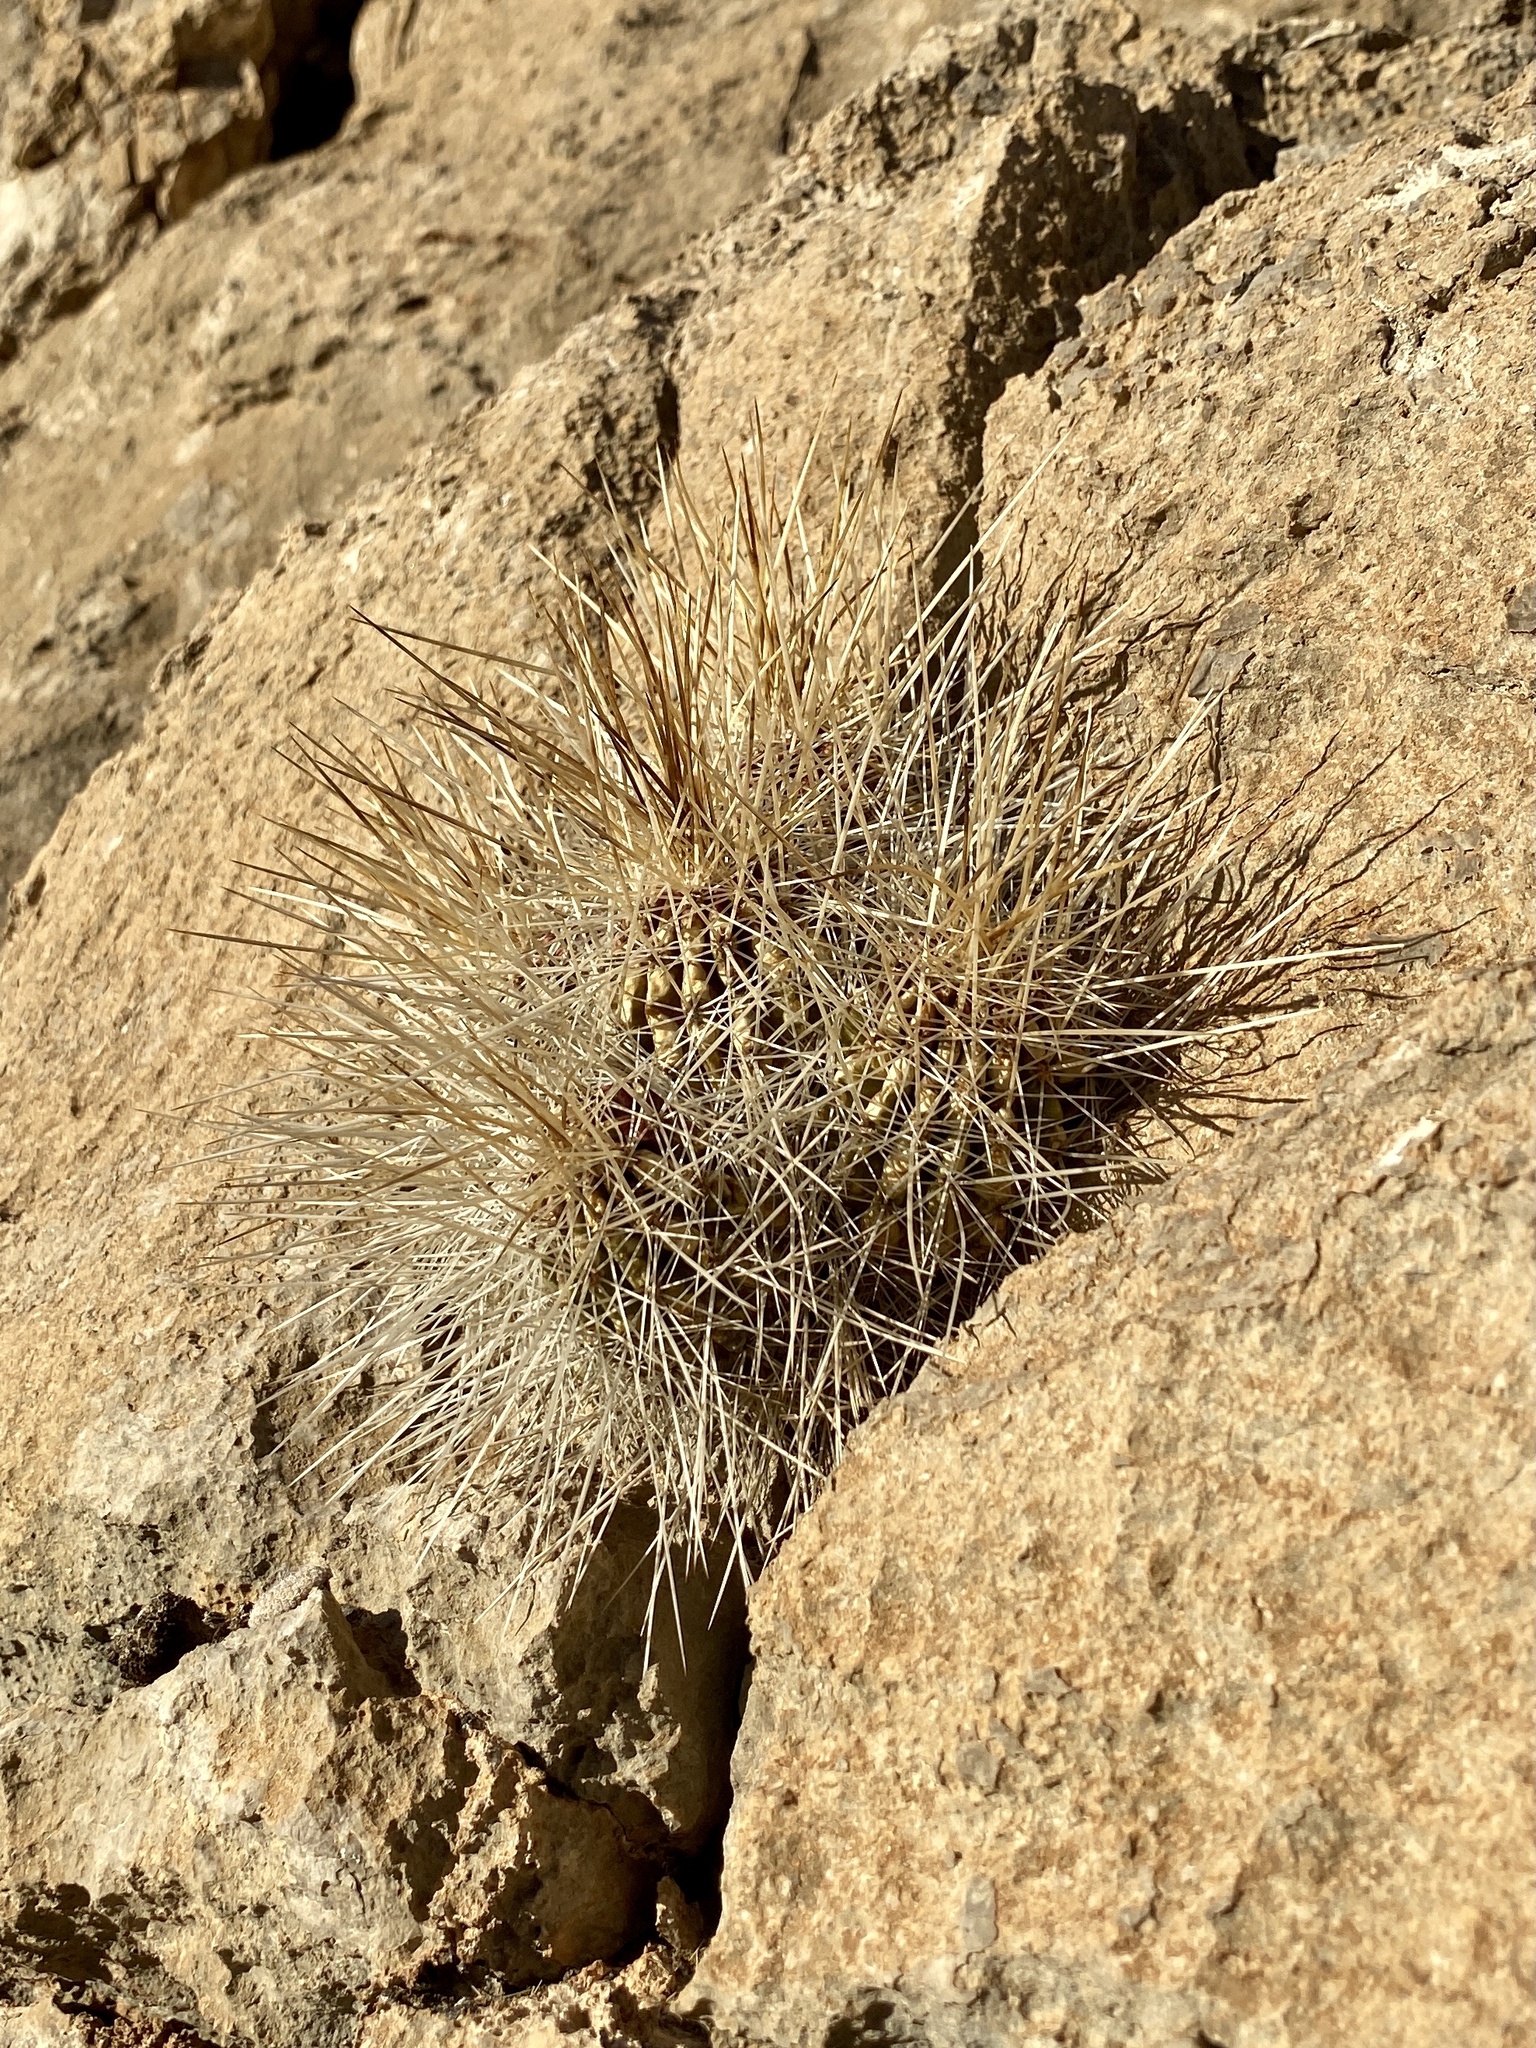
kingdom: Plantae
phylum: Tracheophyta
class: Magnoliopsida
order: Caryophyllales
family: Cactaceae
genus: Echinocereus
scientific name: Echinocereus stramineus
